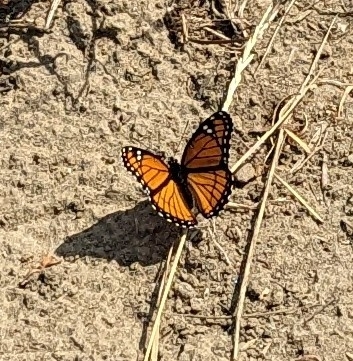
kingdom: Animalia
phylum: Arthropoda
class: Insecta
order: Lepidoptera
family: Nymphalidae
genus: Limenitis
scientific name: Limenitis archippus
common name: Viceroy
